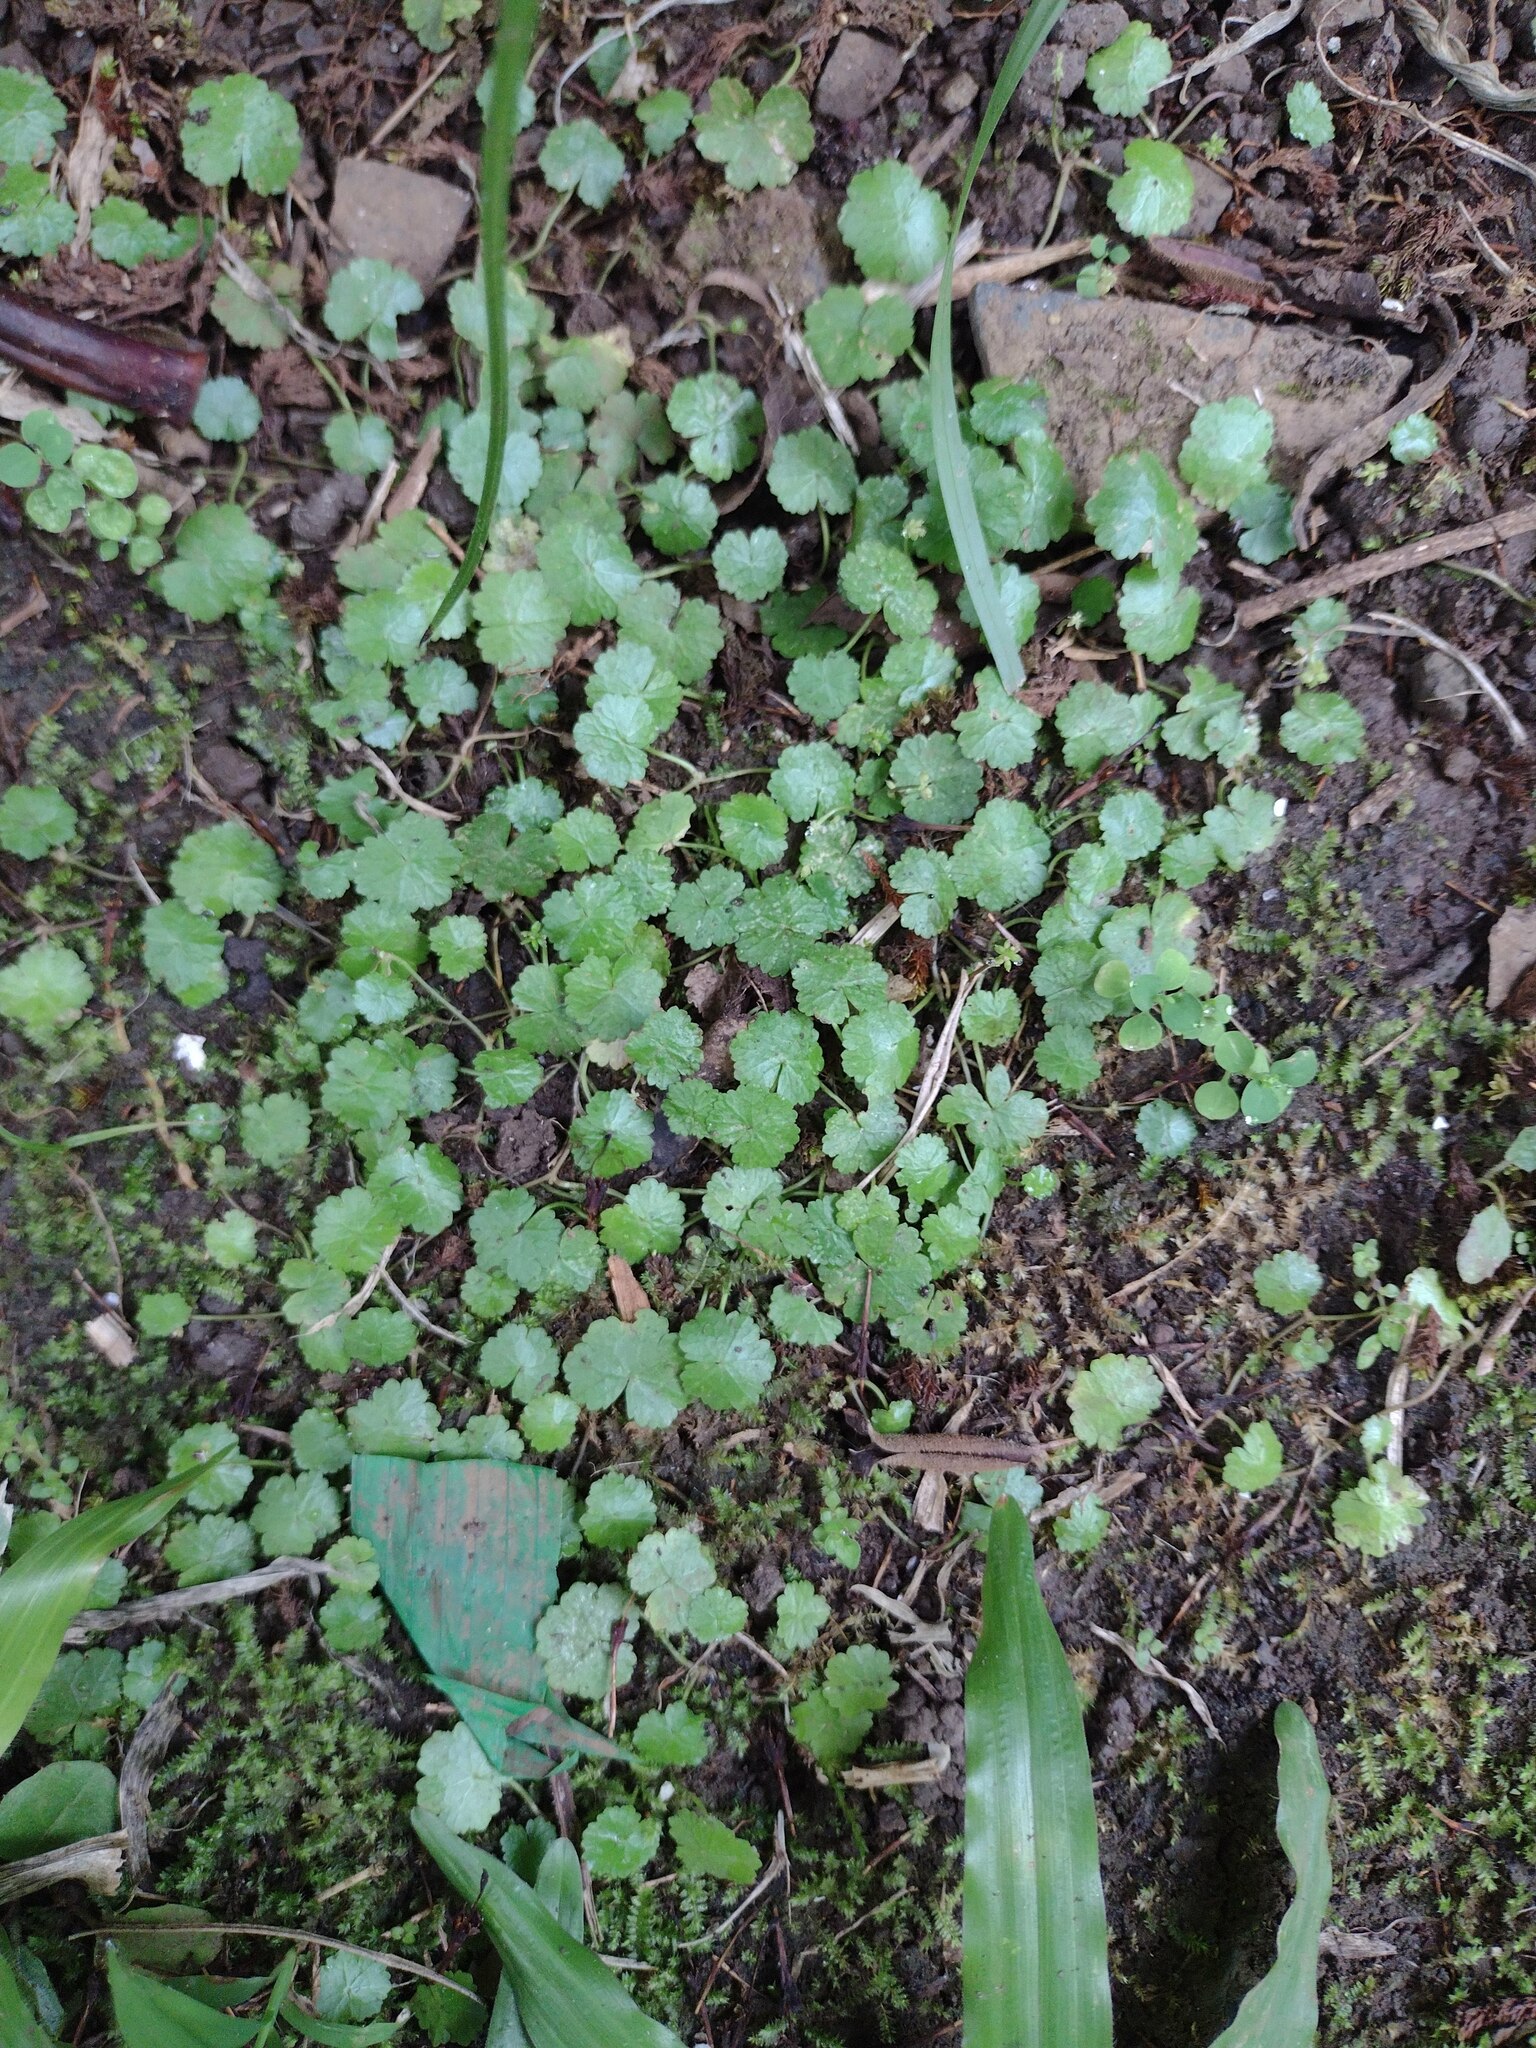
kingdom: Plantae
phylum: Tracheophyta
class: Magnoliopsida
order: Apiales
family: Araliaceae
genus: Hydrocotyle
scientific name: Hydrocotyle sibthorpioides
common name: Lawn marshpennywort
